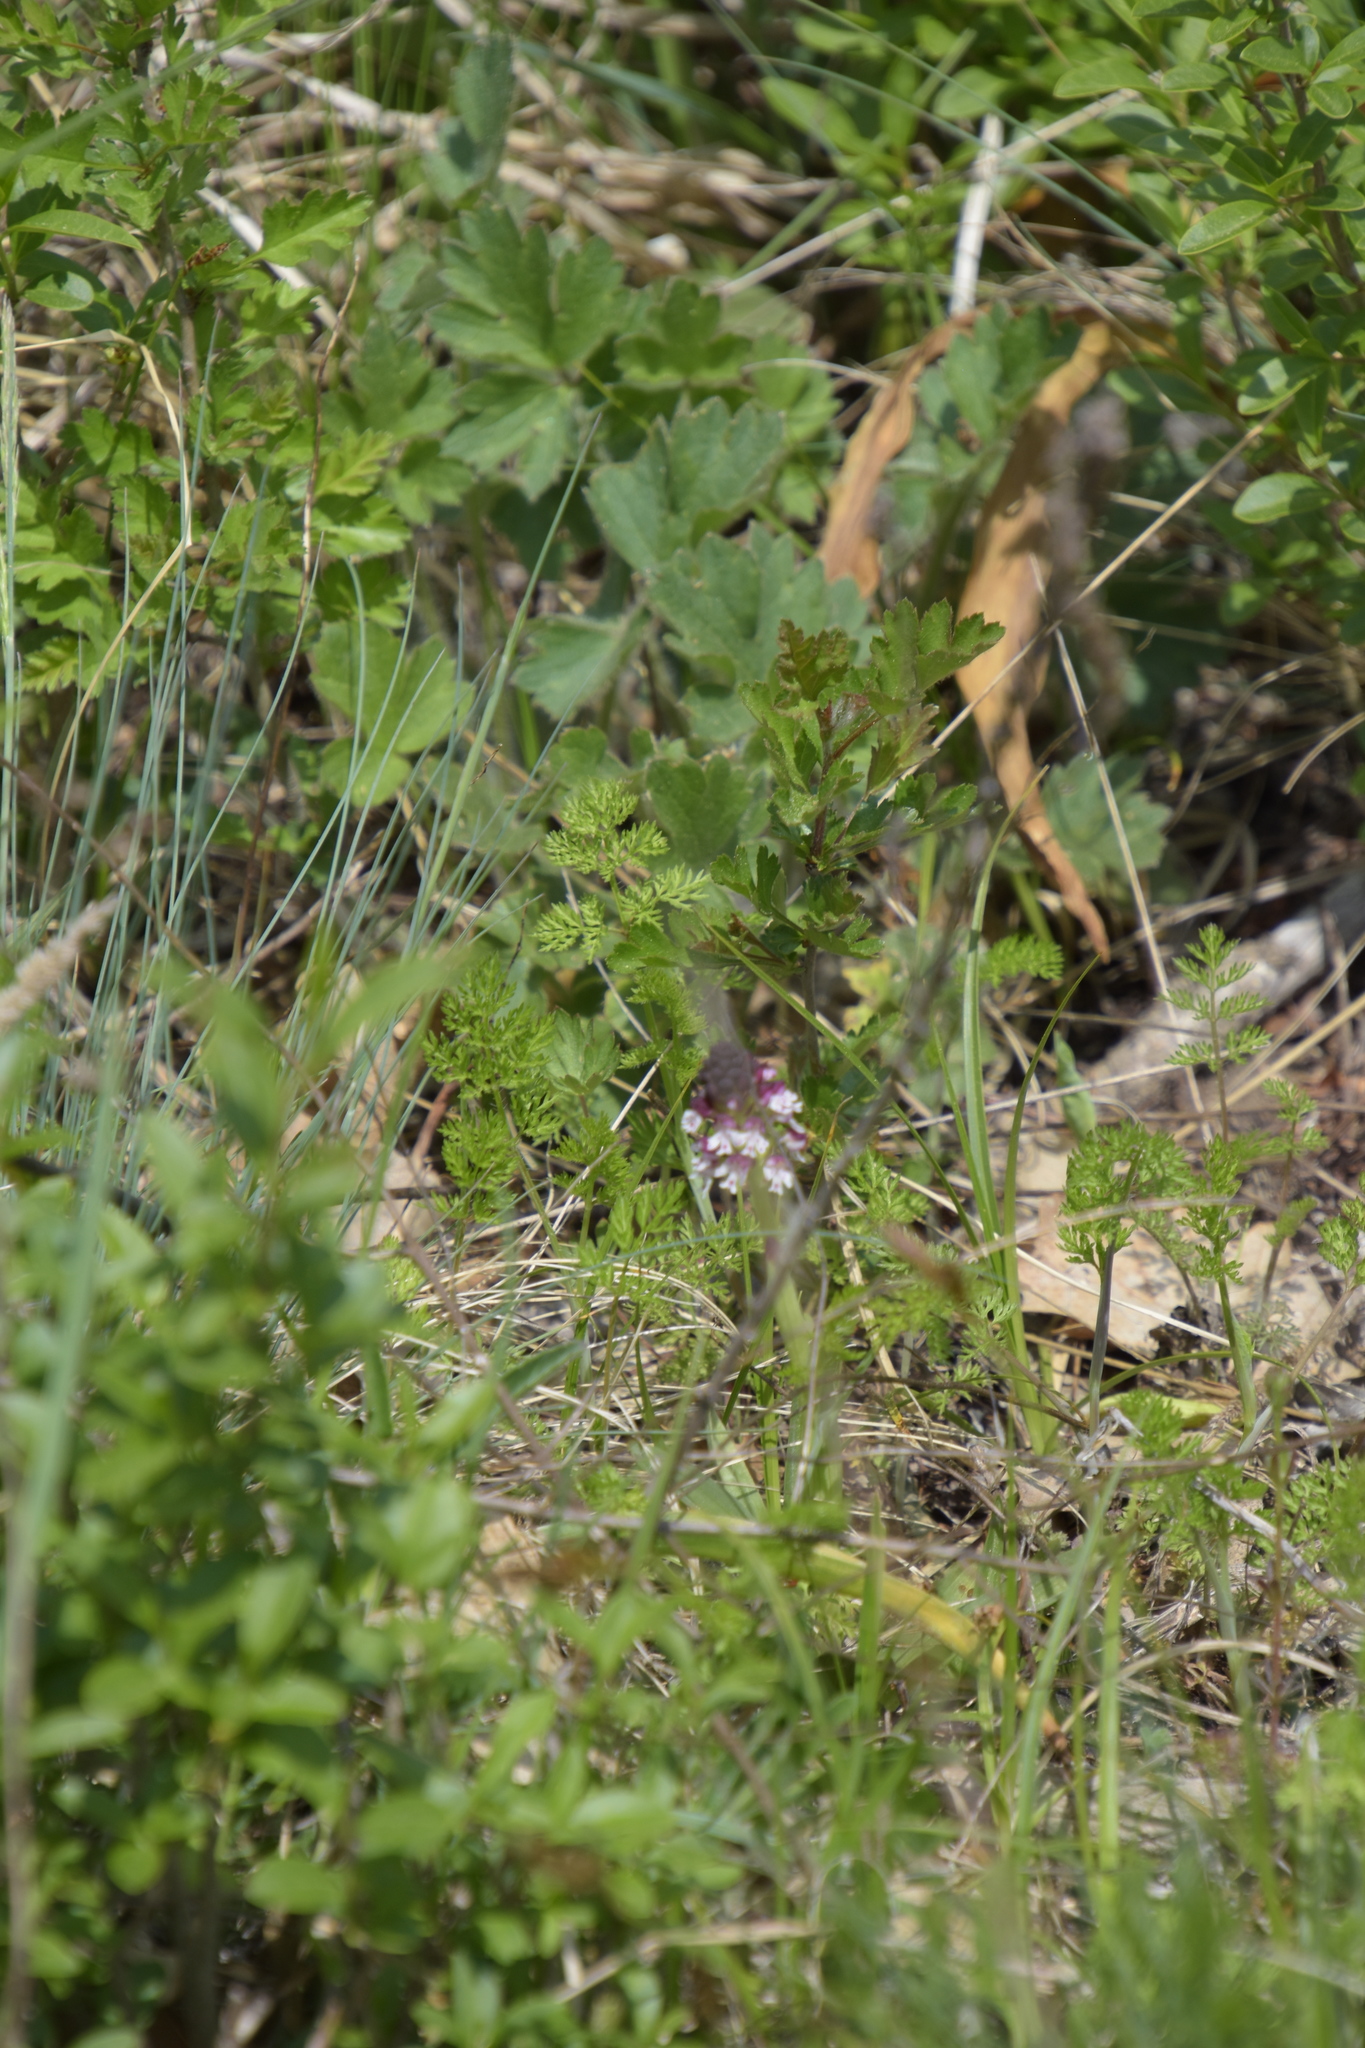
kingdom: Plantae
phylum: Tracheophyta
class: Liliopsida
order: Asparagales
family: Orchidaceae
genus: Neotinea
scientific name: Neotinea ustulata
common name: Burnt orchid
